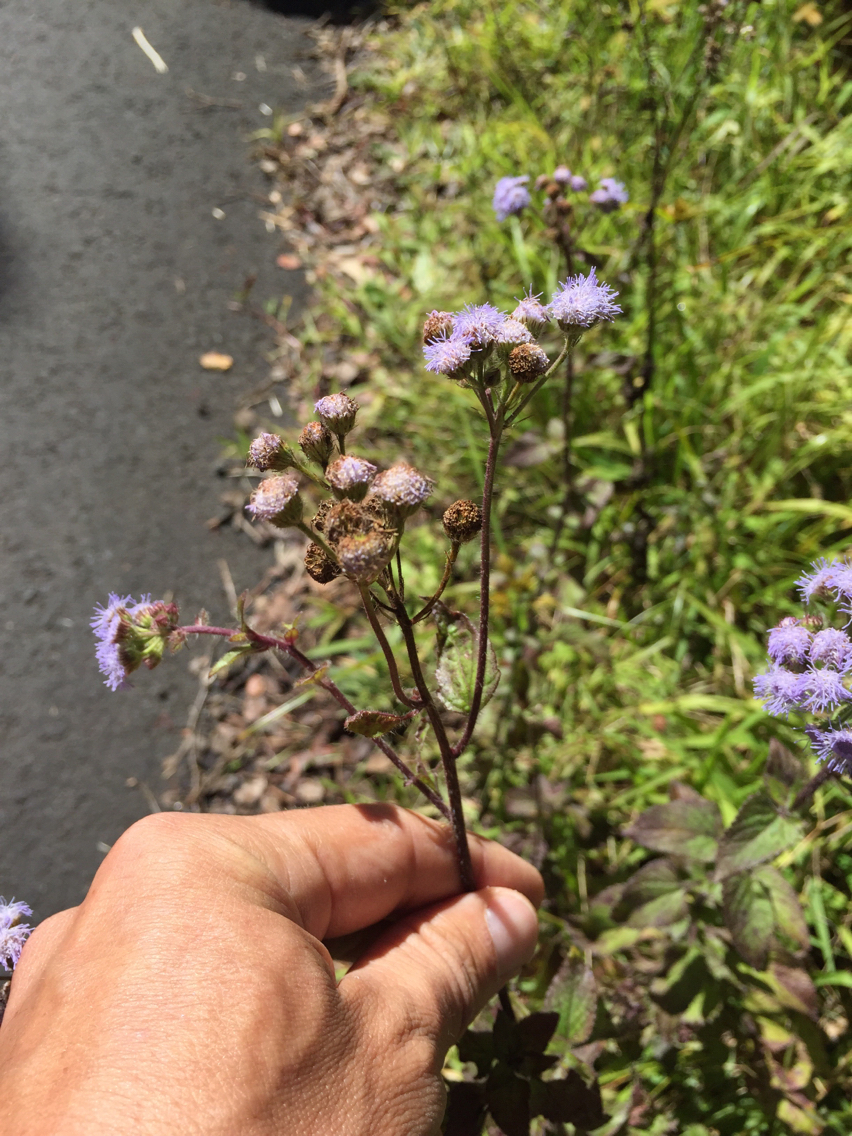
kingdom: Plantae
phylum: Tracheophyta
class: Magnoliopsida
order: Asterales
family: Asteraceae
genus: Ageratum
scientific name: Ageratum houstonianum
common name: Bluemink
